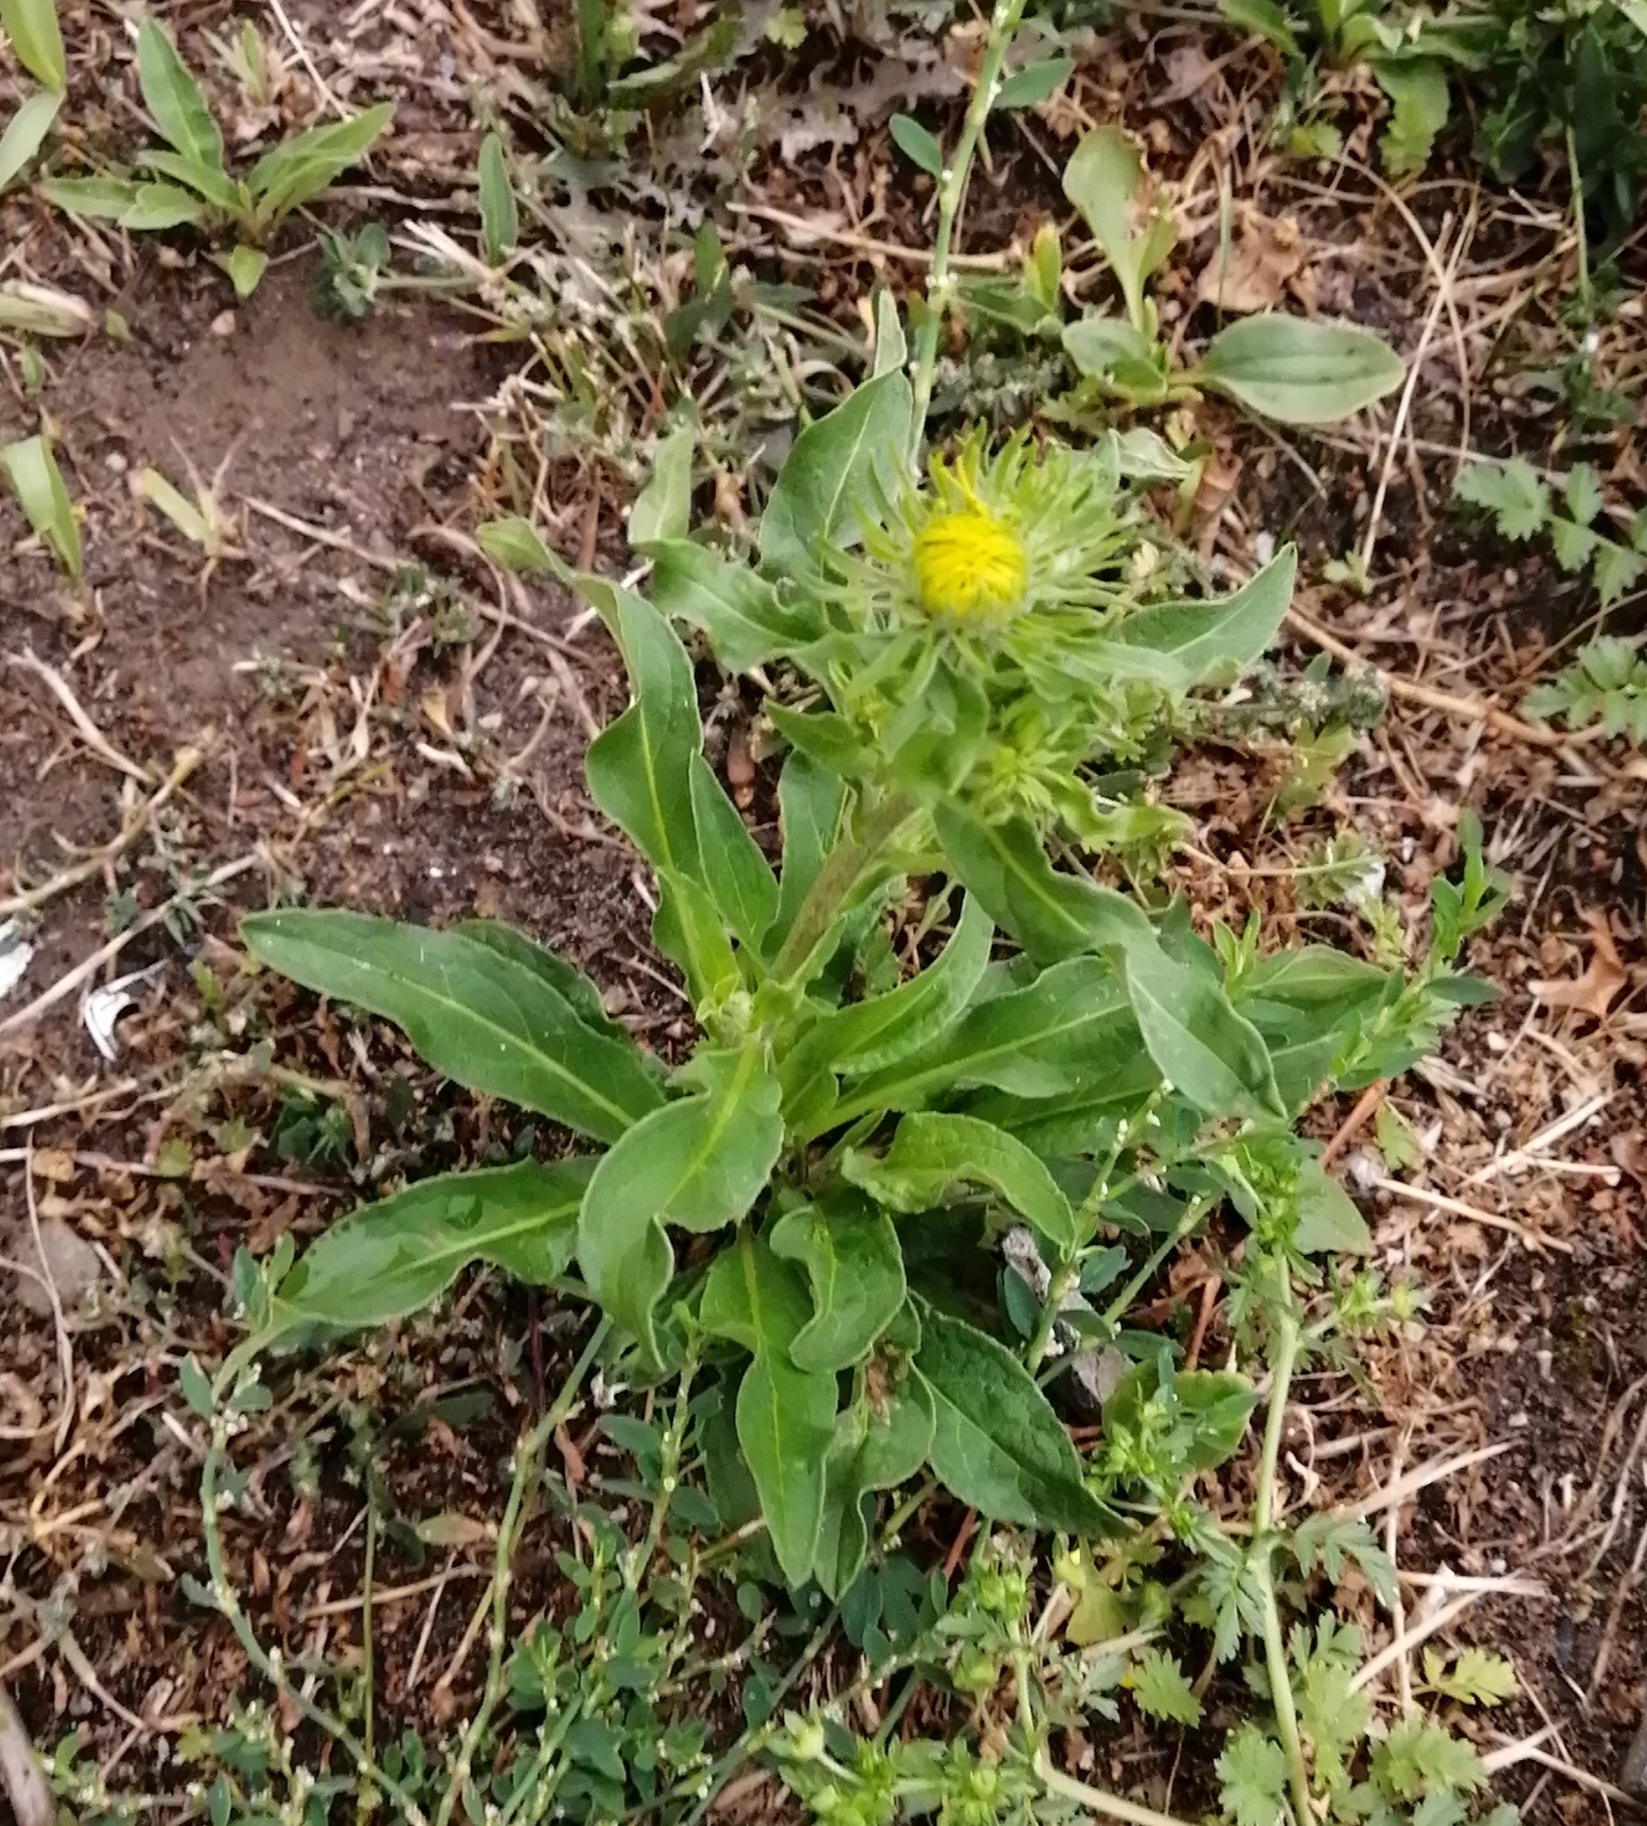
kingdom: Plantae
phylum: Tracheophyta
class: Magnoliopsida
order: Asterales
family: Asteraceae
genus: Pentanema
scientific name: Pentanema britannicum
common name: British elecampane
